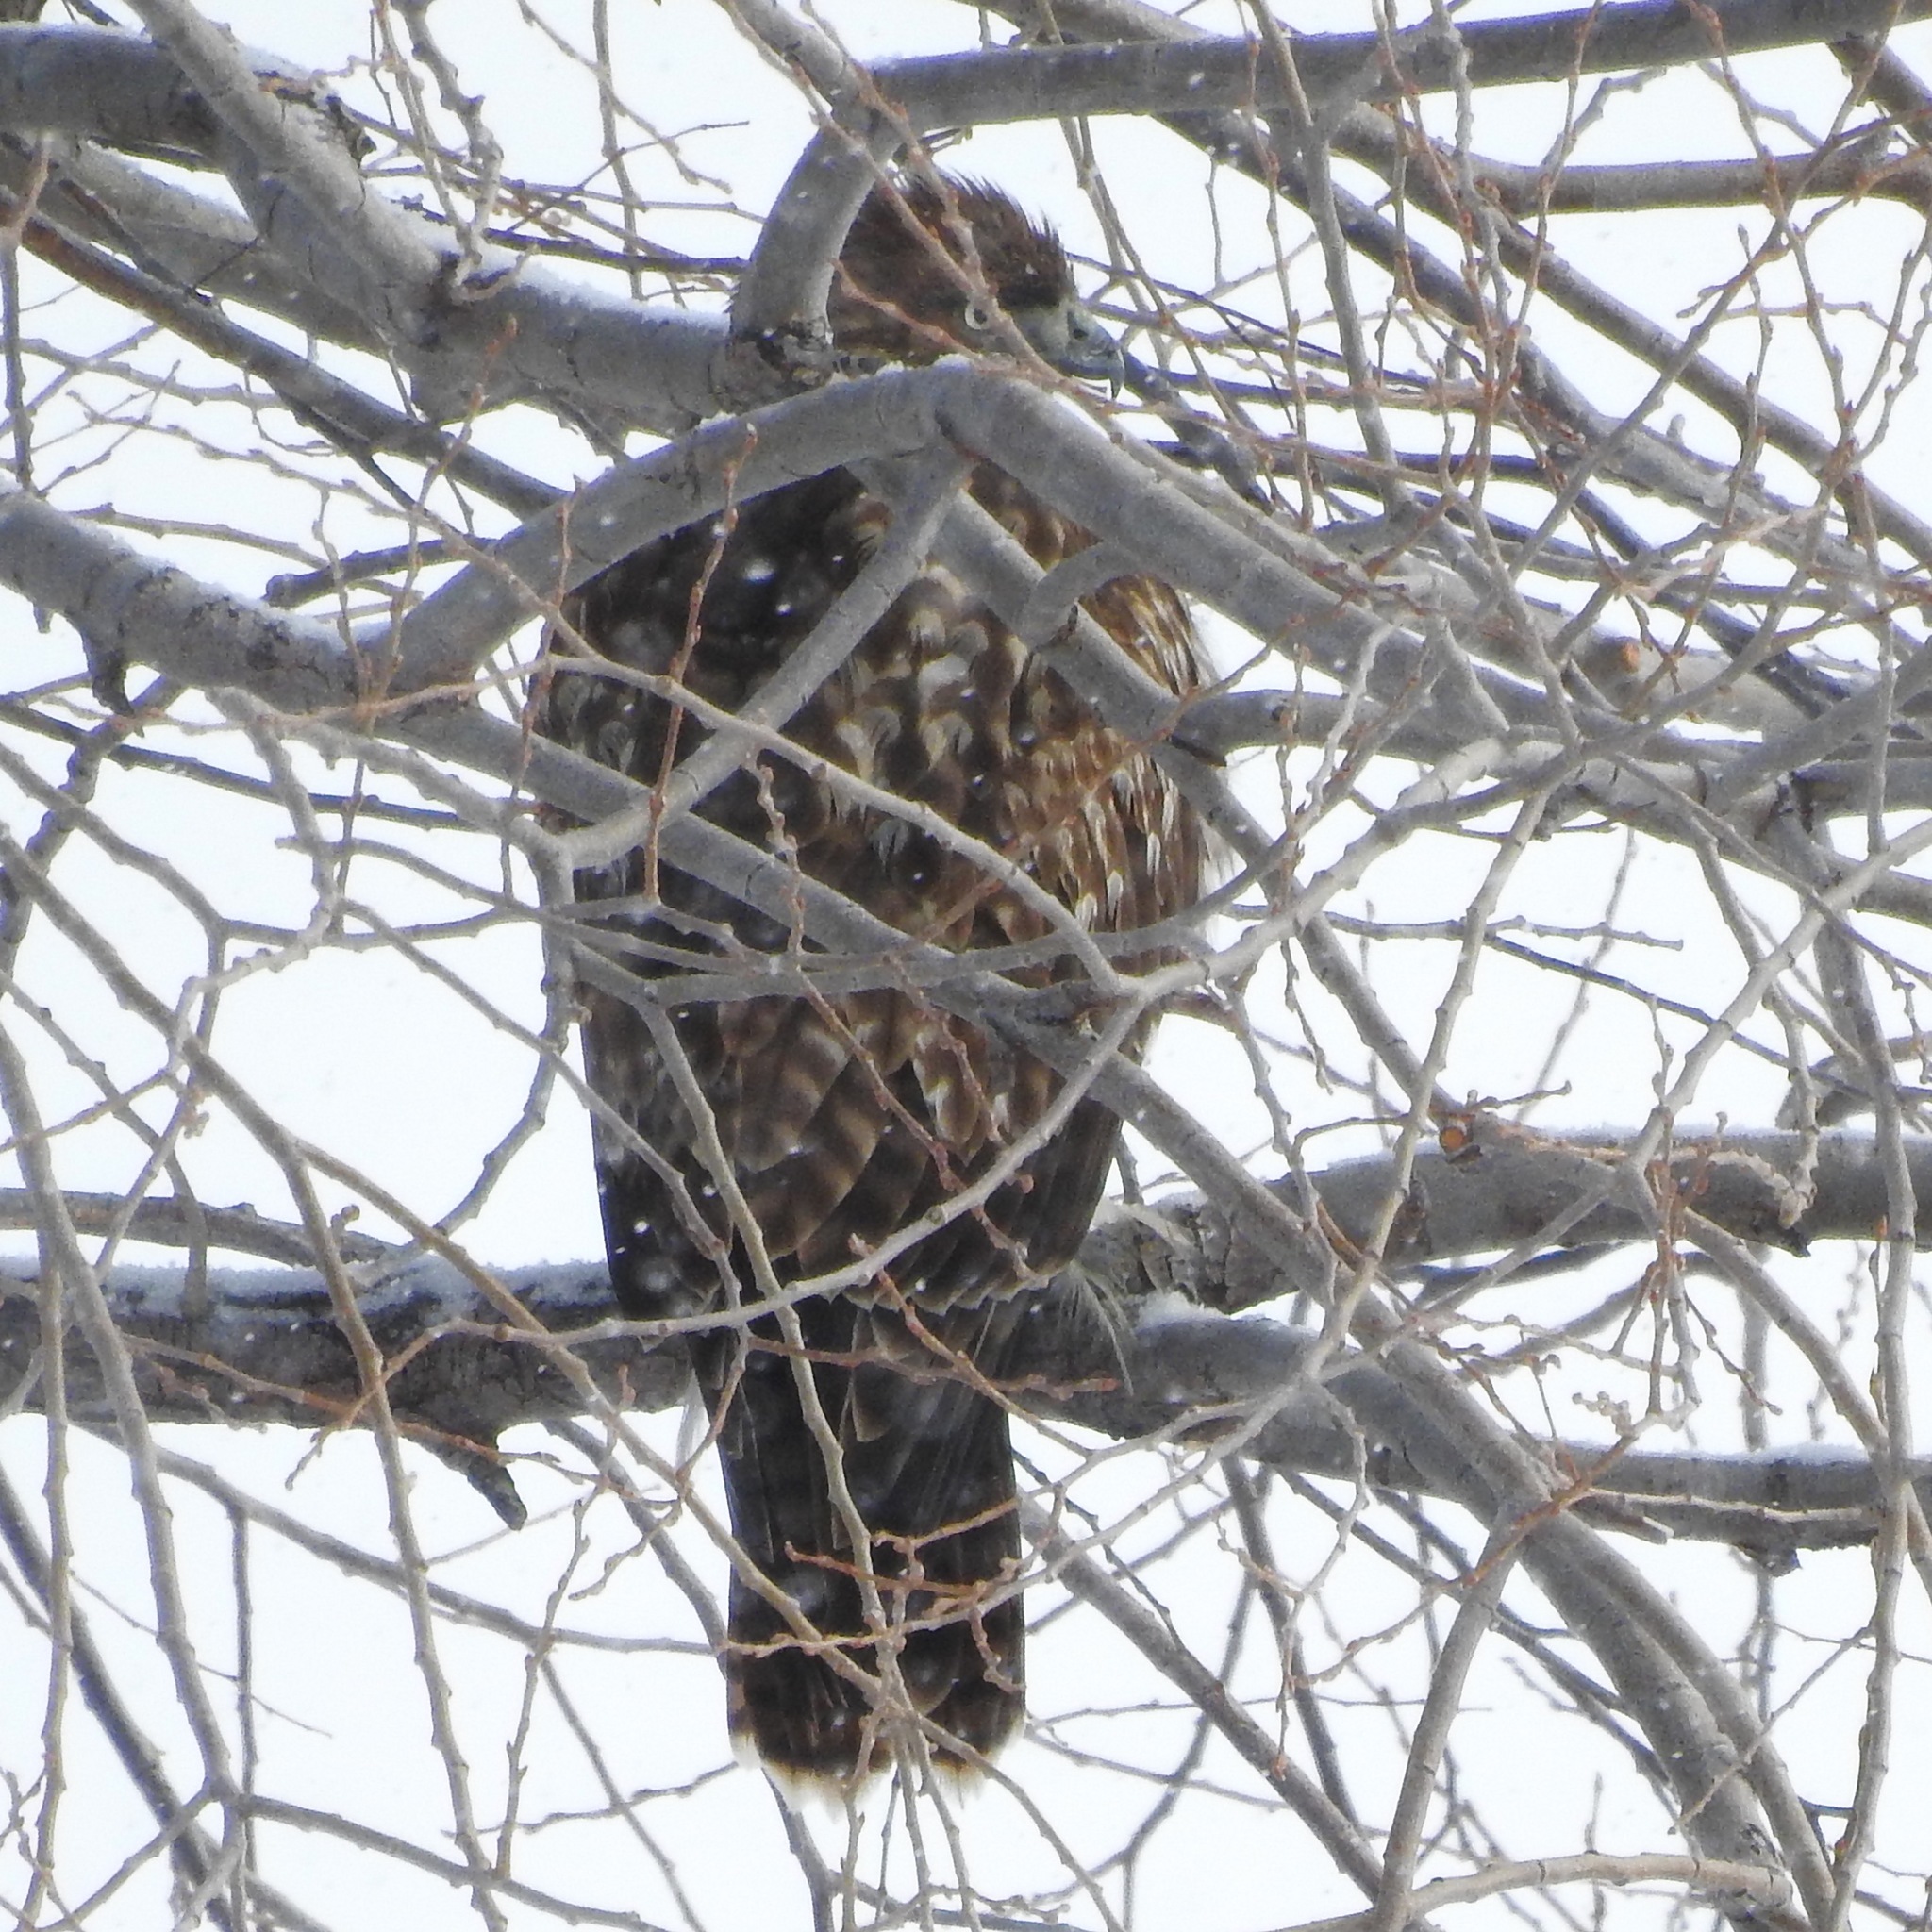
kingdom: Animalia
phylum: Chordata
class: Aves
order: Accipitriformes
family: Accipitridae
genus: Buteo
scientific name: Buteo jamaicensis
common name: Red-tailed hawk
